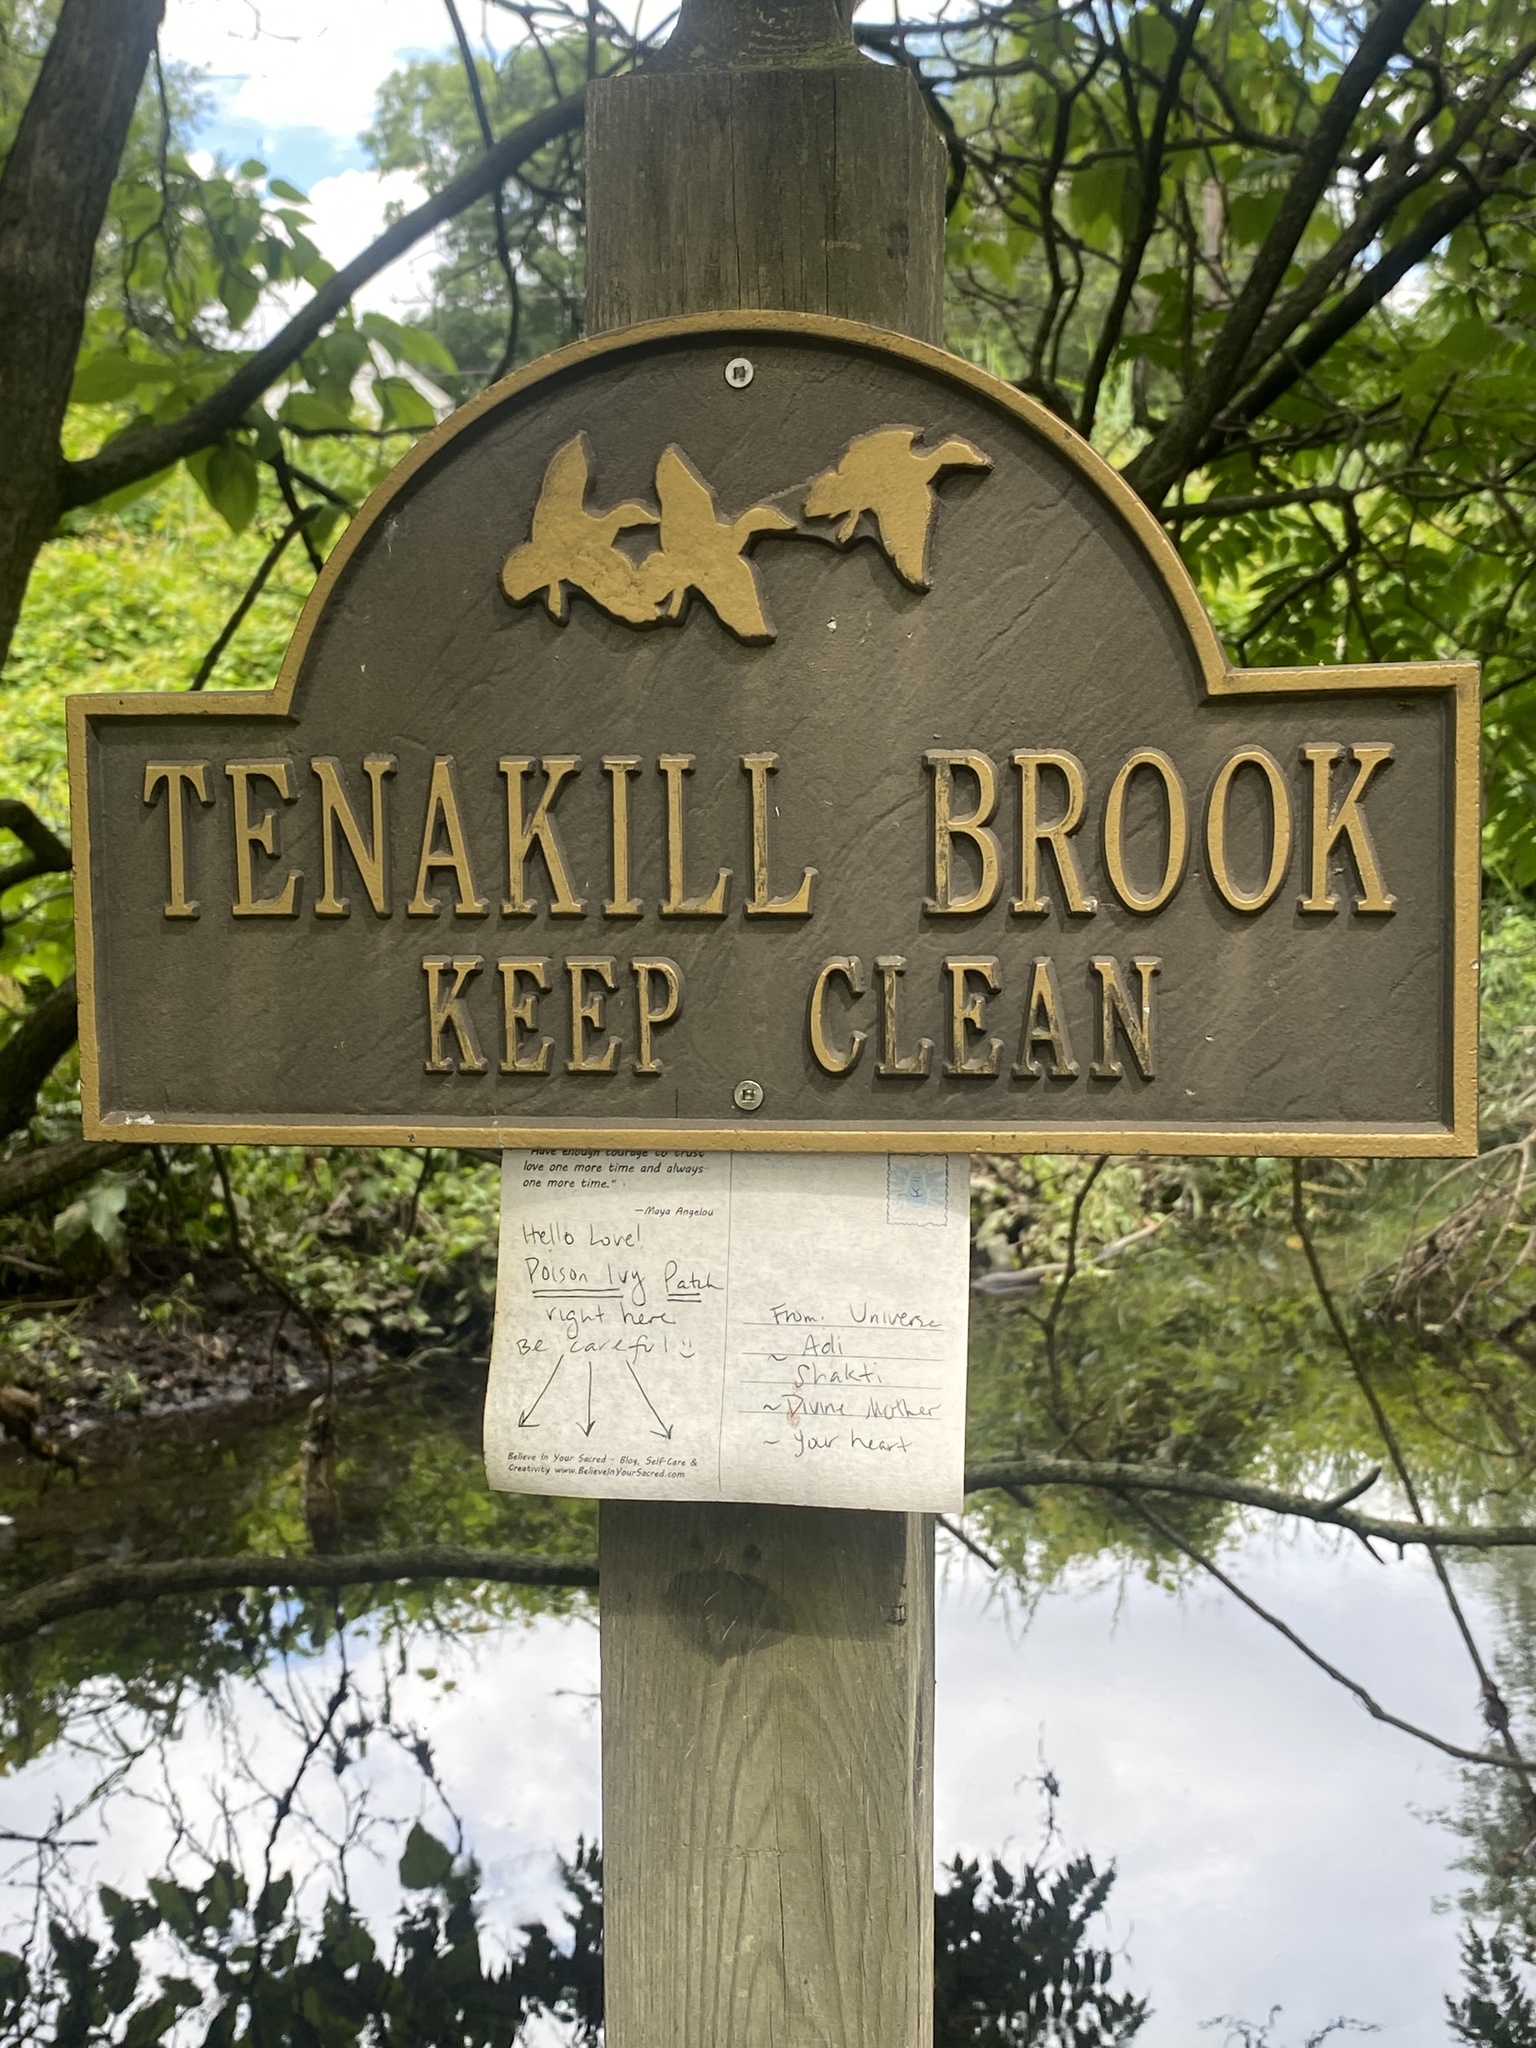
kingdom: Plantae
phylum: Tracheophyta
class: Magnoliopsida
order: Sapindales
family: Anacardiaceae
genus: Toxicodendron
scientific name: Toxicodendron radicans
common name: Poison ivy
